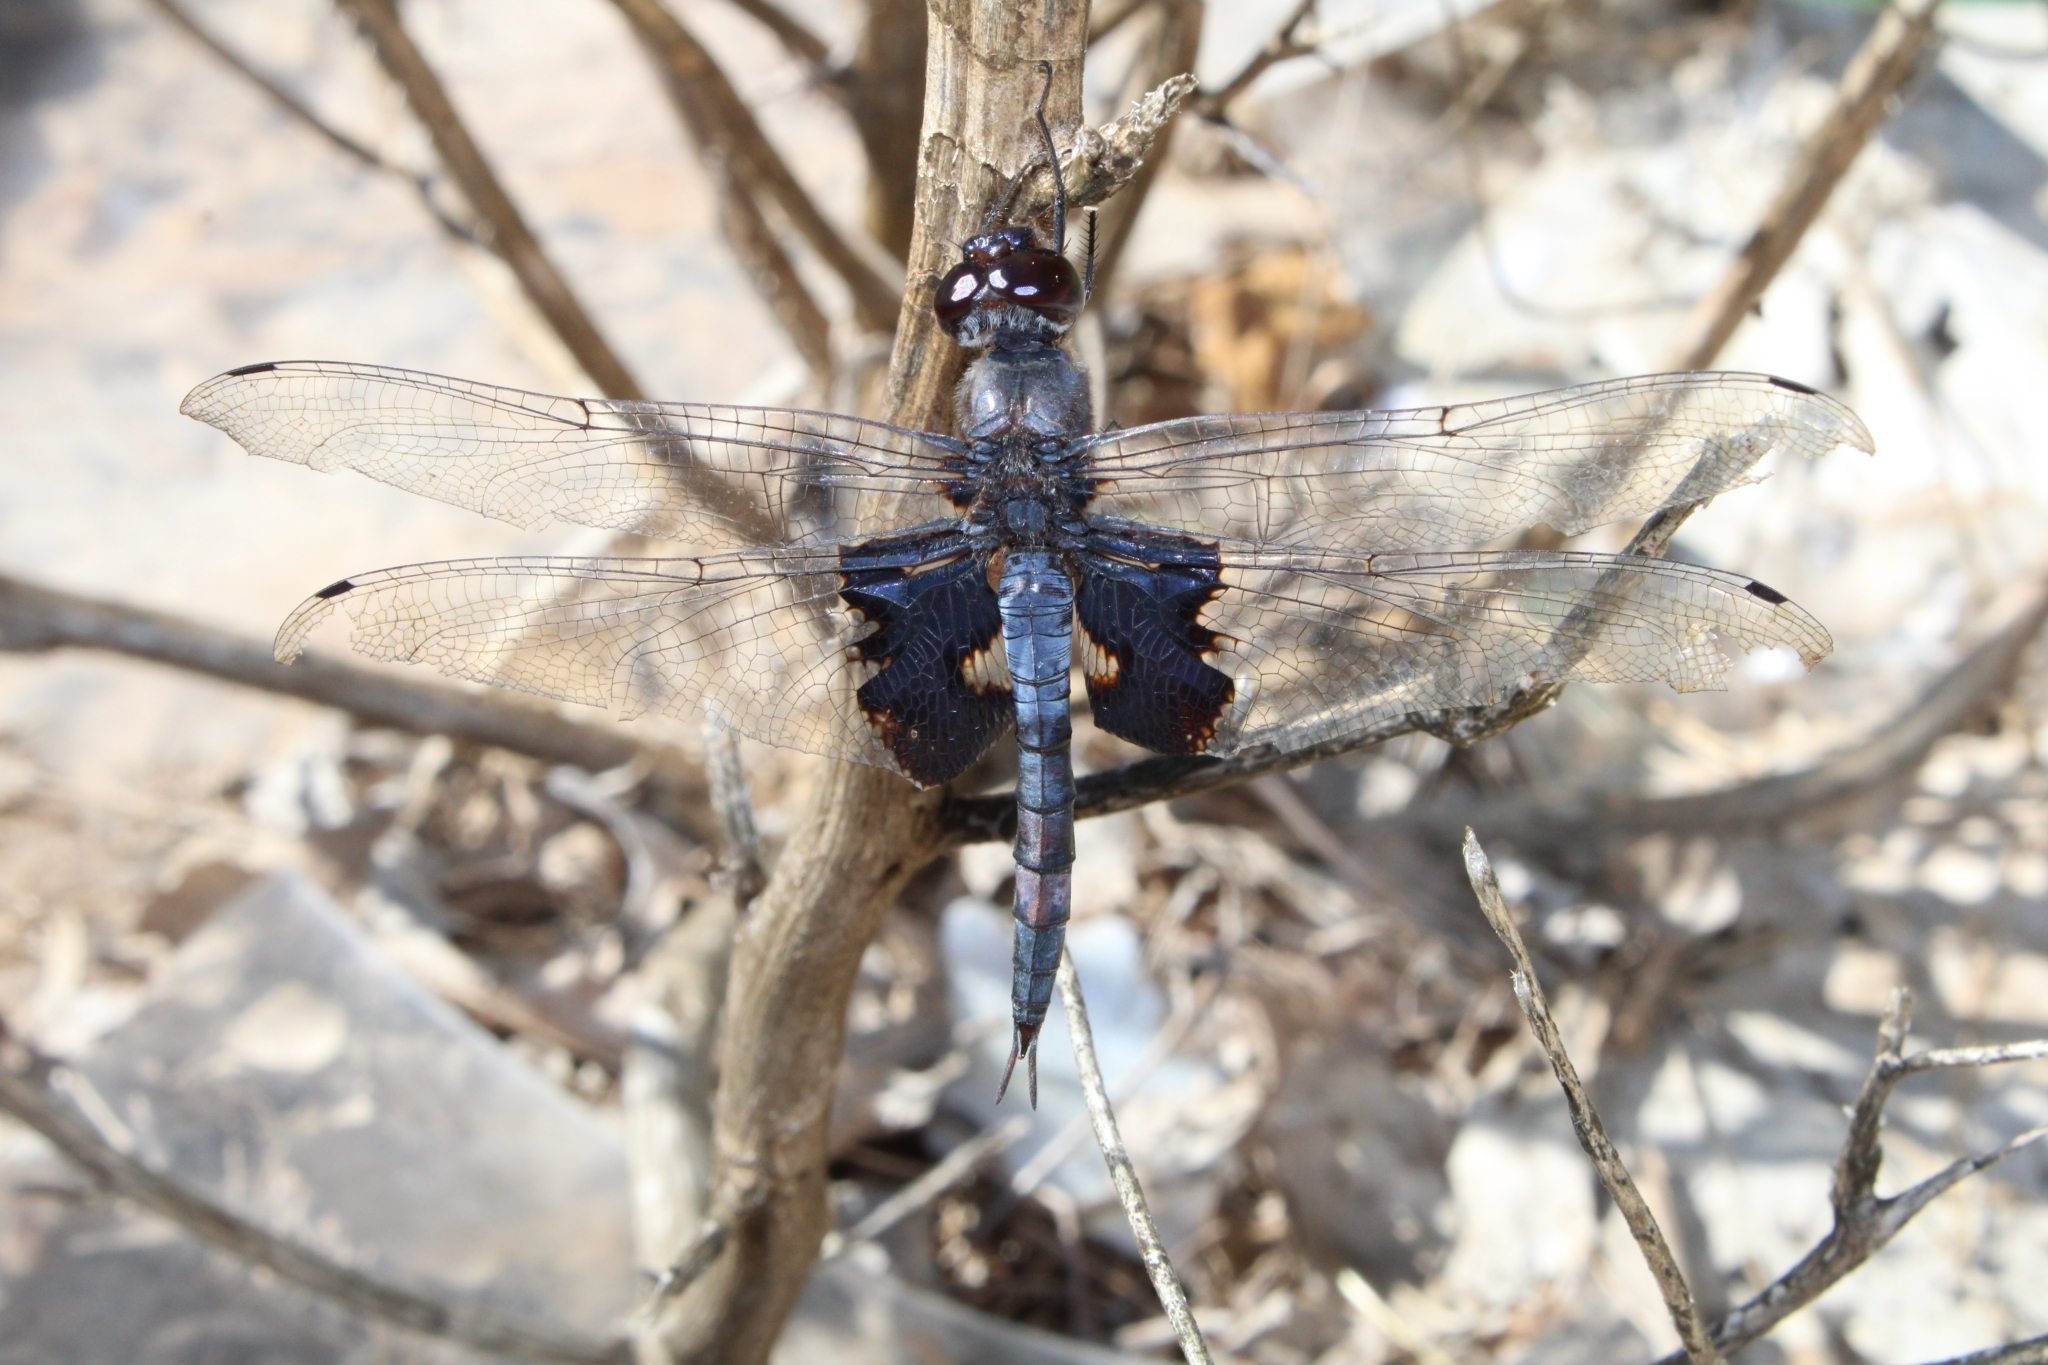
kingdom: Animalia
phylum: Arthropoda
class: Insecta
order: Odonata
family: Libellulidae
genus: Tramea
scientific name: Tramea lacerata
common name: Black saddlebags
